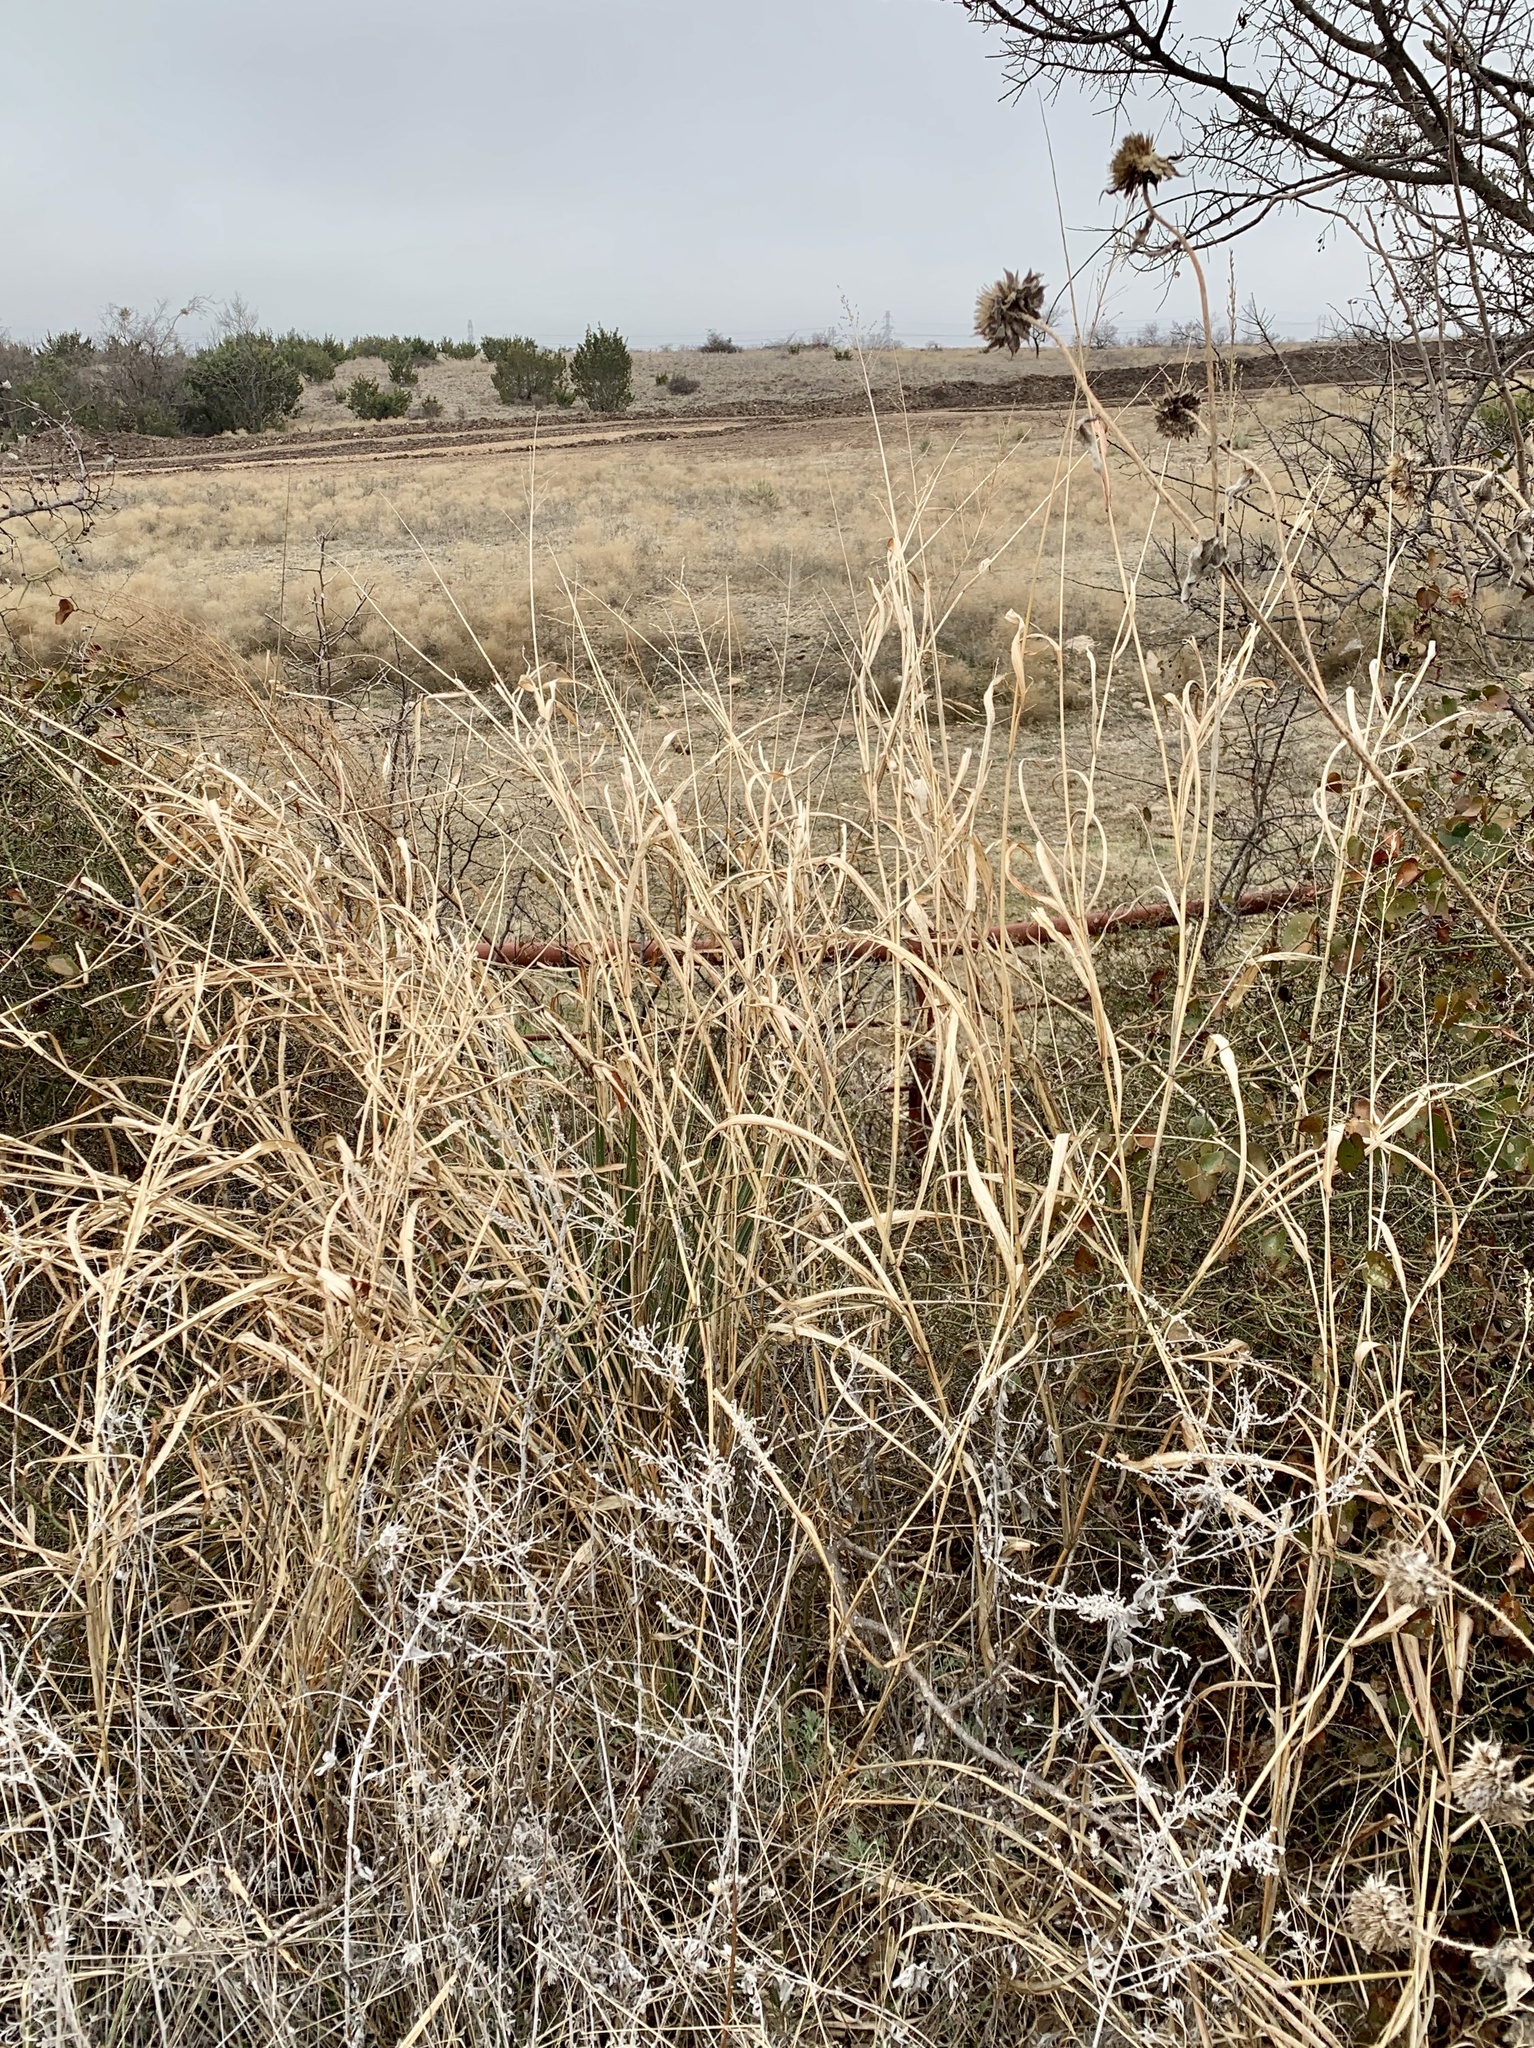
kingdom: Plantae
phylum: Tracheophyta
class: Liliopsida
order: Poales
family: Poaceae
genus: Sorghum
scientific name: Sorghum halepense
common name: Johnson-grass
